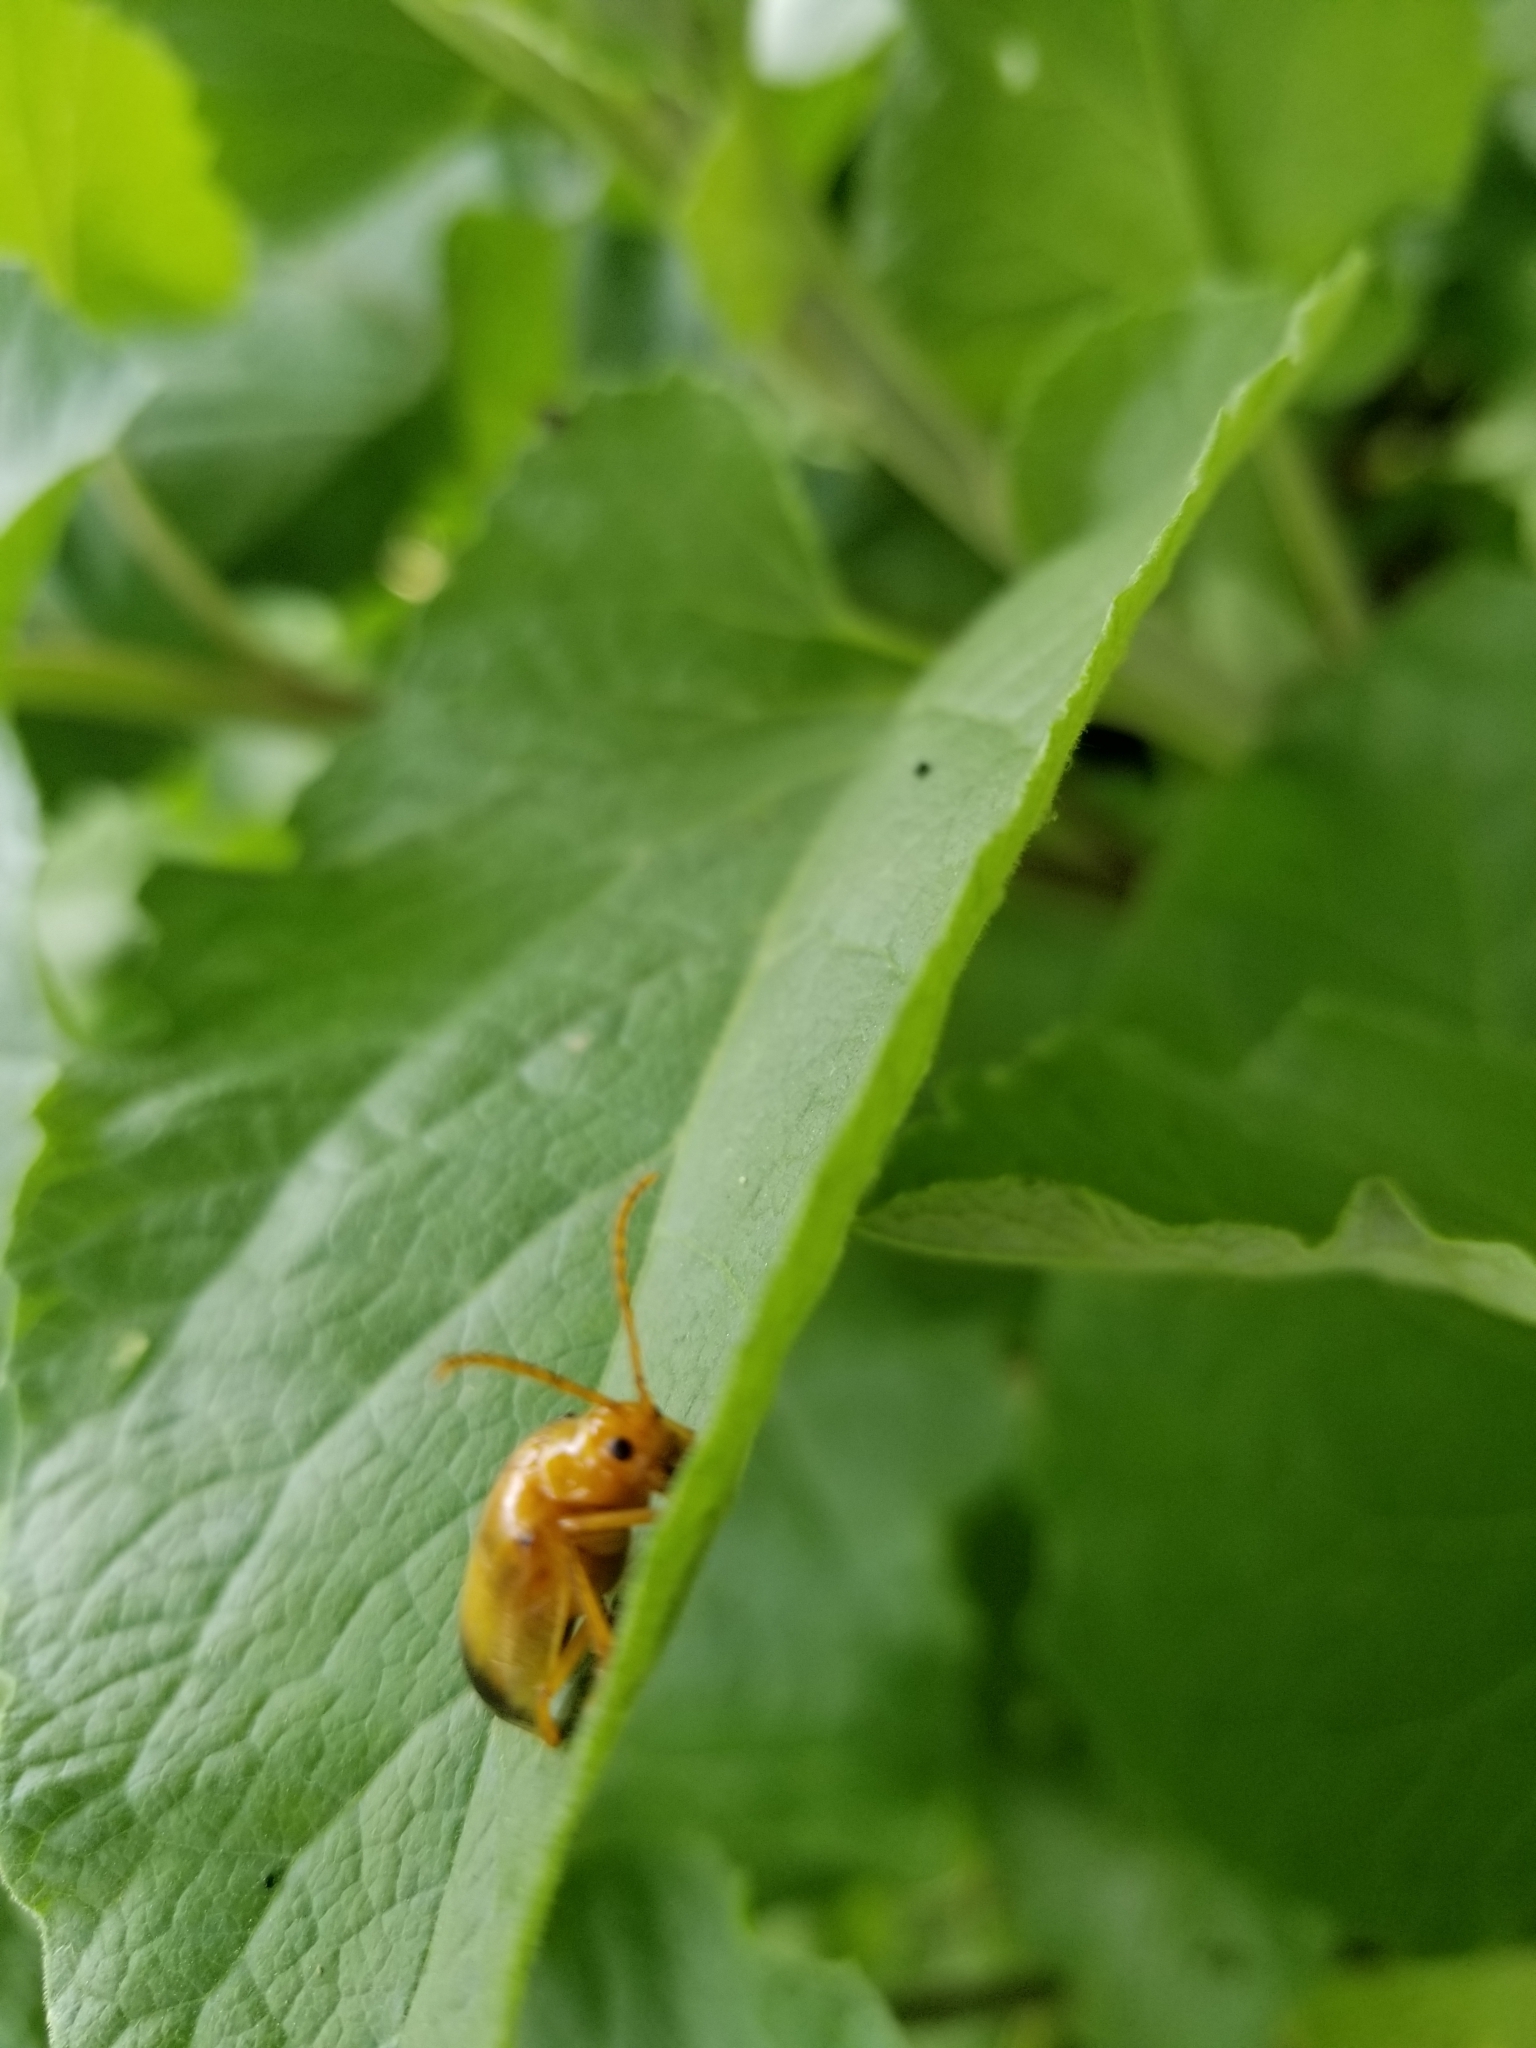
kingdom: Animalia
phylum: Arthropoda
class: Insecta
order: Coleoptera
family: Chrysomelidae
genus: Monocesta
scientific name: Monocesta coryli
